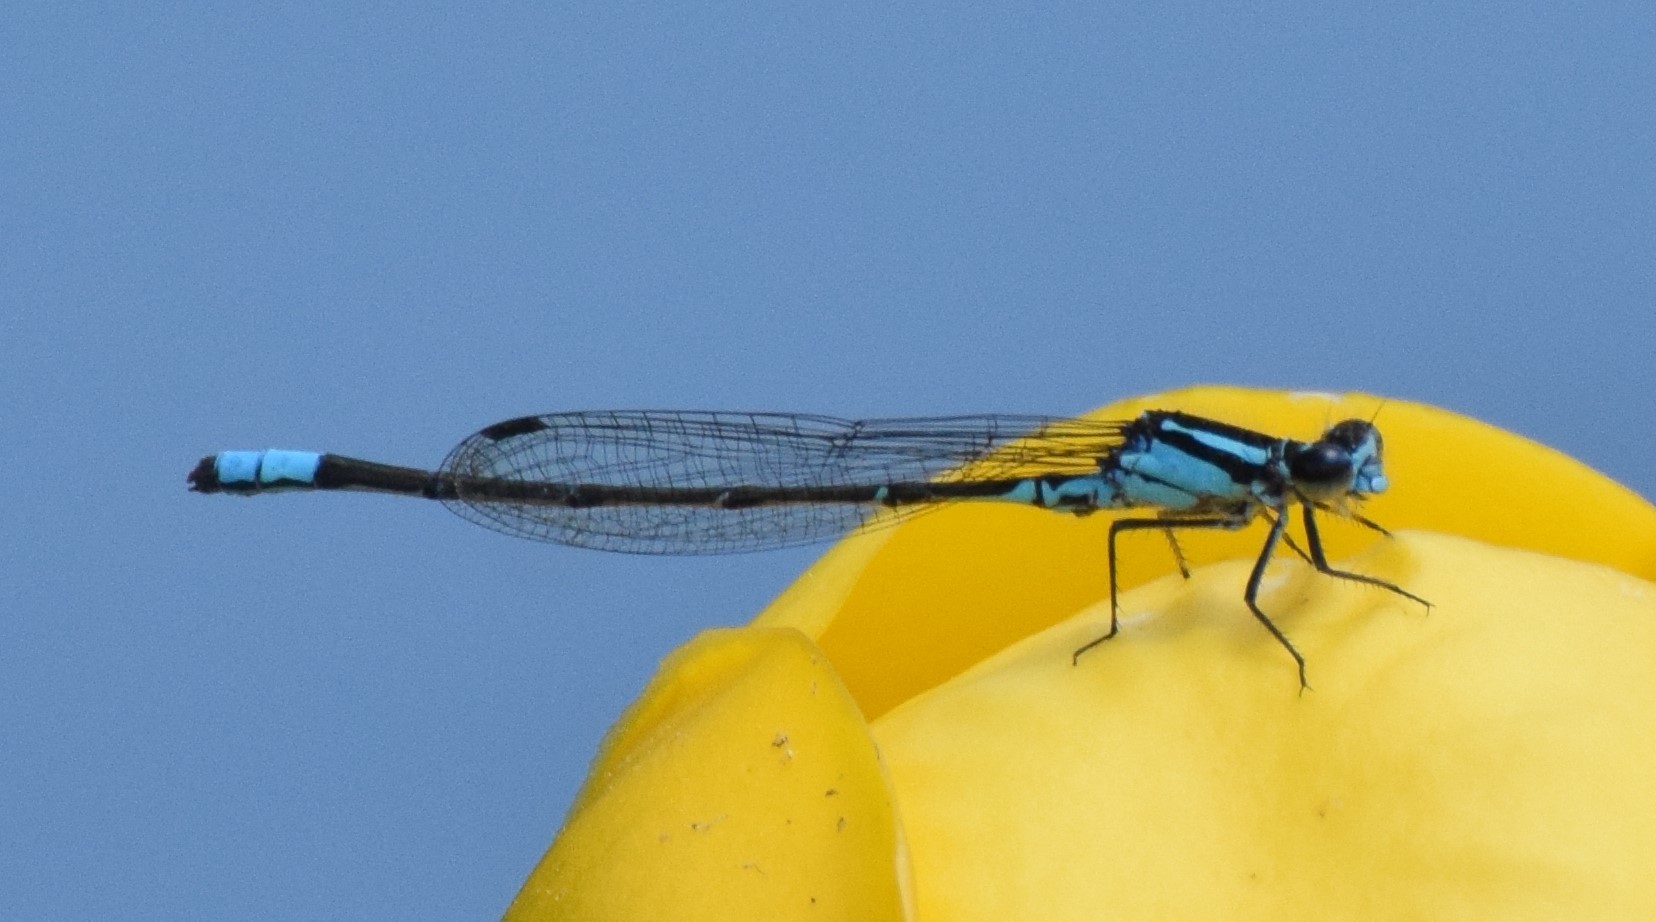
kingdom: Animalia
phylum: Arthropoda
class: Insecta
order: Odonata
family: Coenagrionidae
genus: Enallagma
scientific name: Enallagma geminatum
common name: Skimming bluet
